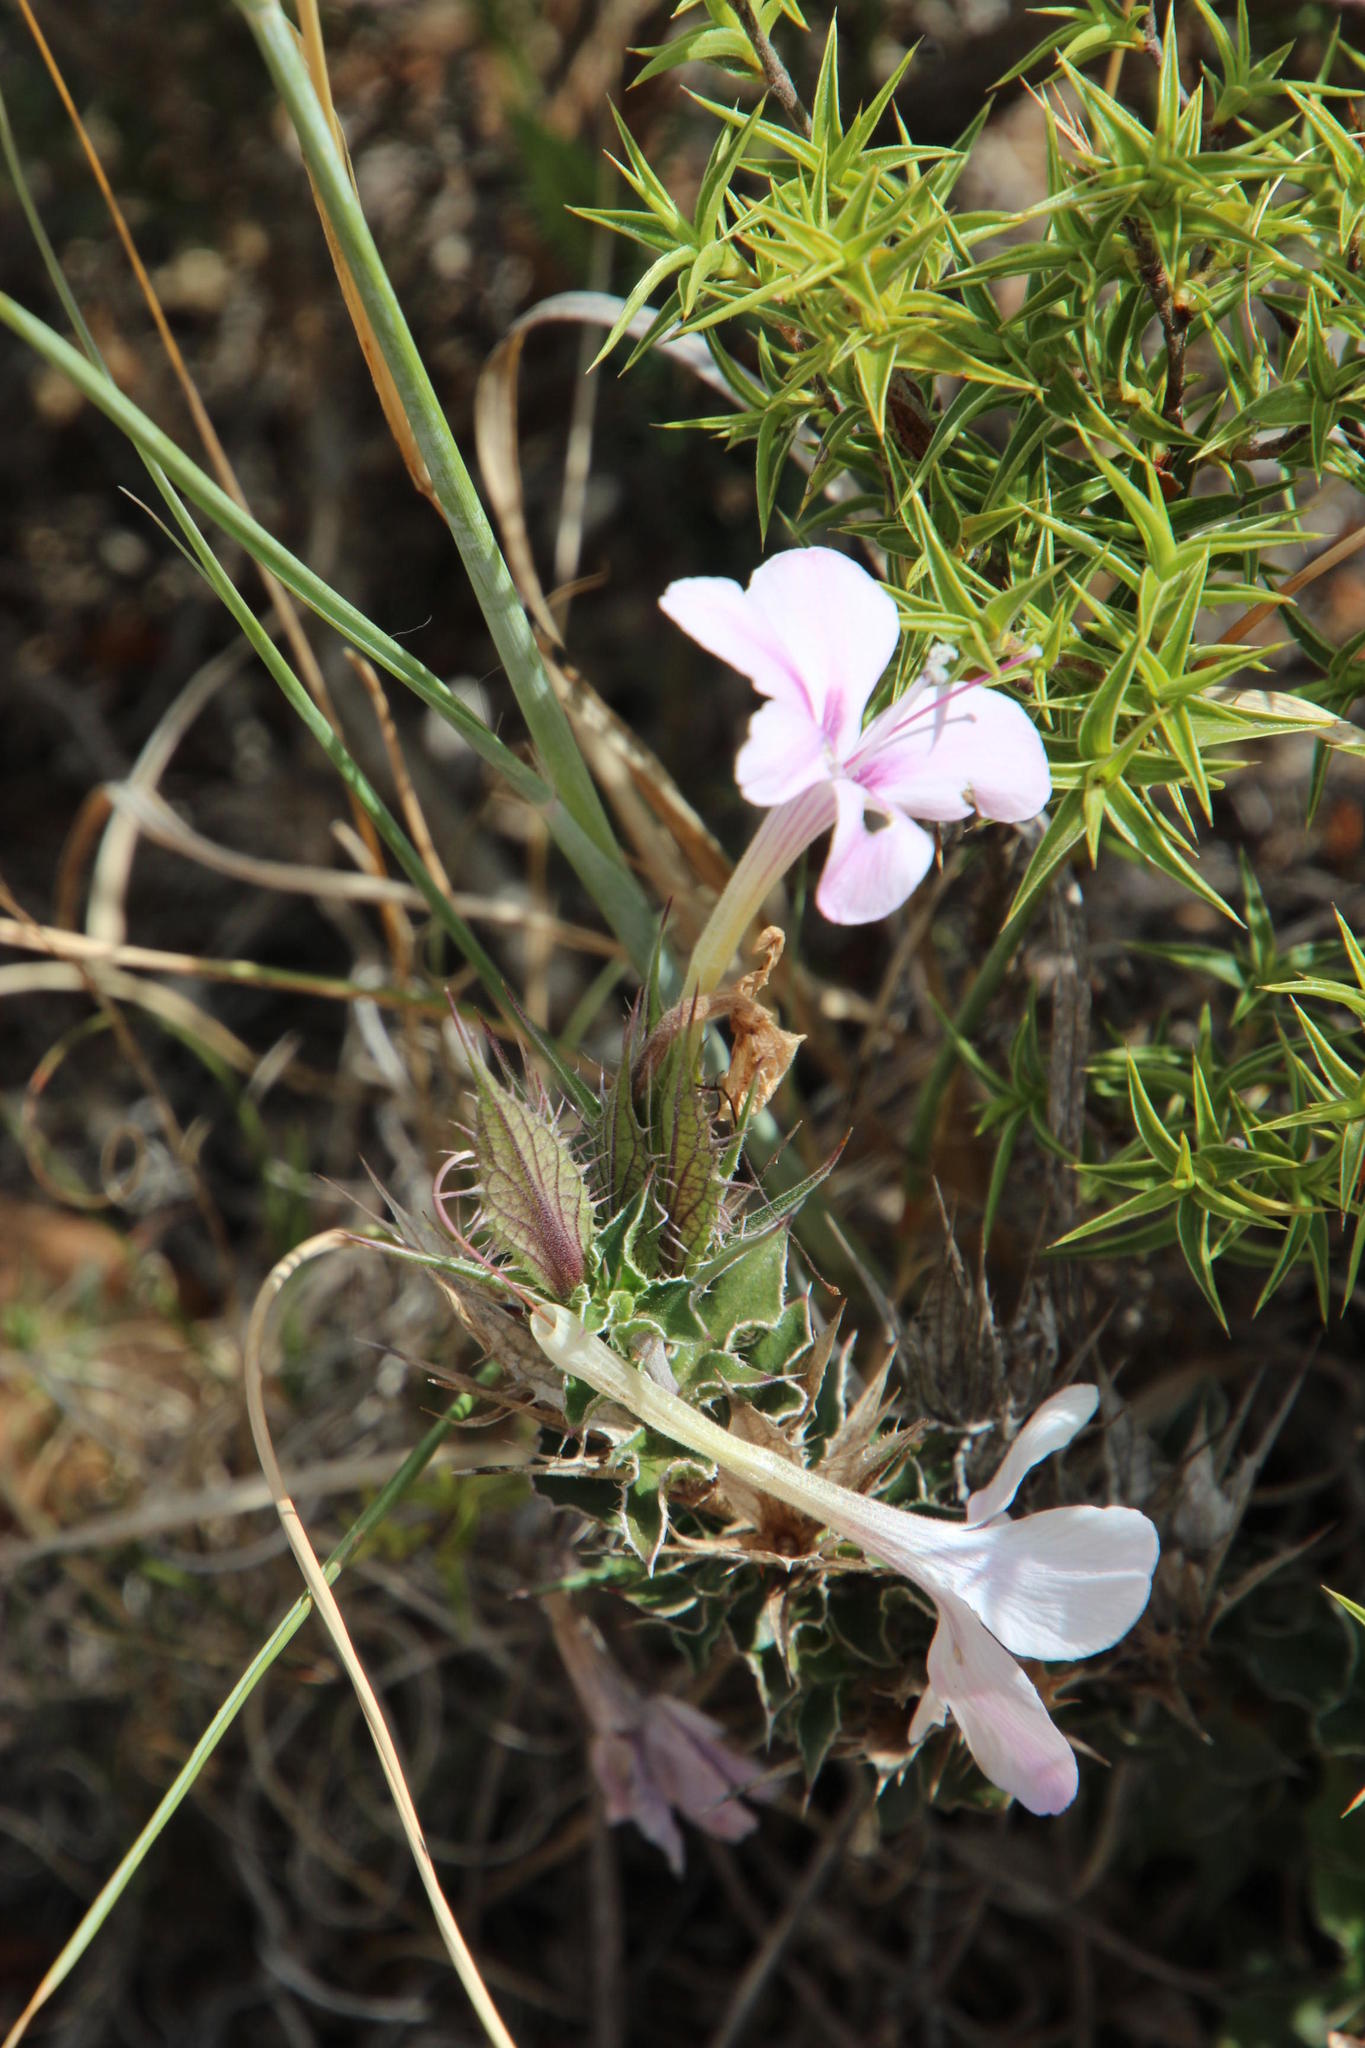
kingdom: Plantae
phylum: Tracheophyta
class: Magnoliopsida
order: Lamiales
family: Acanthaceae
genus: Barleria
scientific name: Barleria pungens
